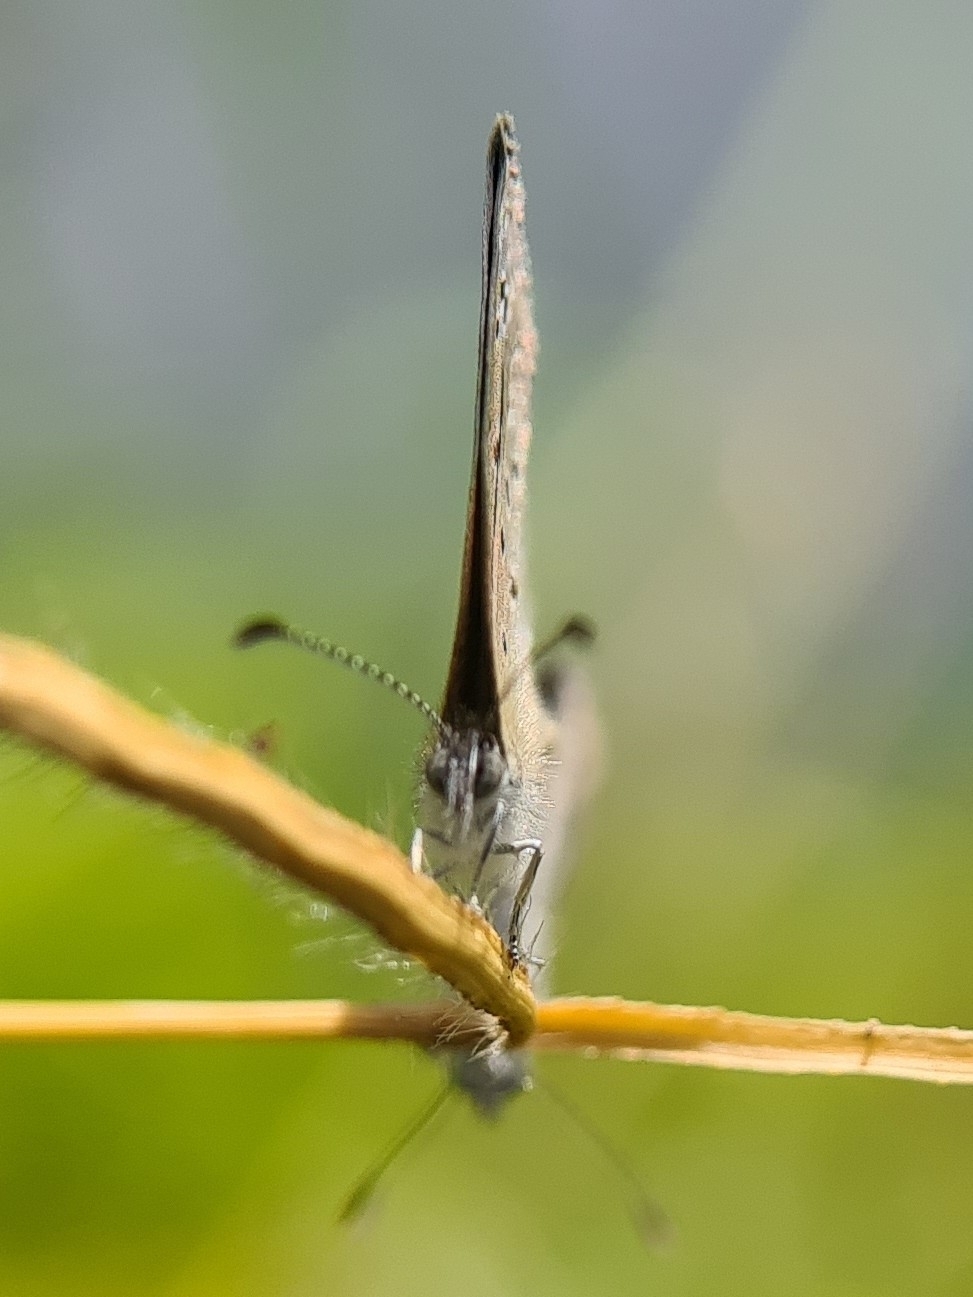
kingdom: Animalia
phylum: Arthropoda
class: Insecta
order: Lepidoptera
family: Lycaenidae
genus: Zizula
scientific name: Zizula hylax
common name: Gaika blue
